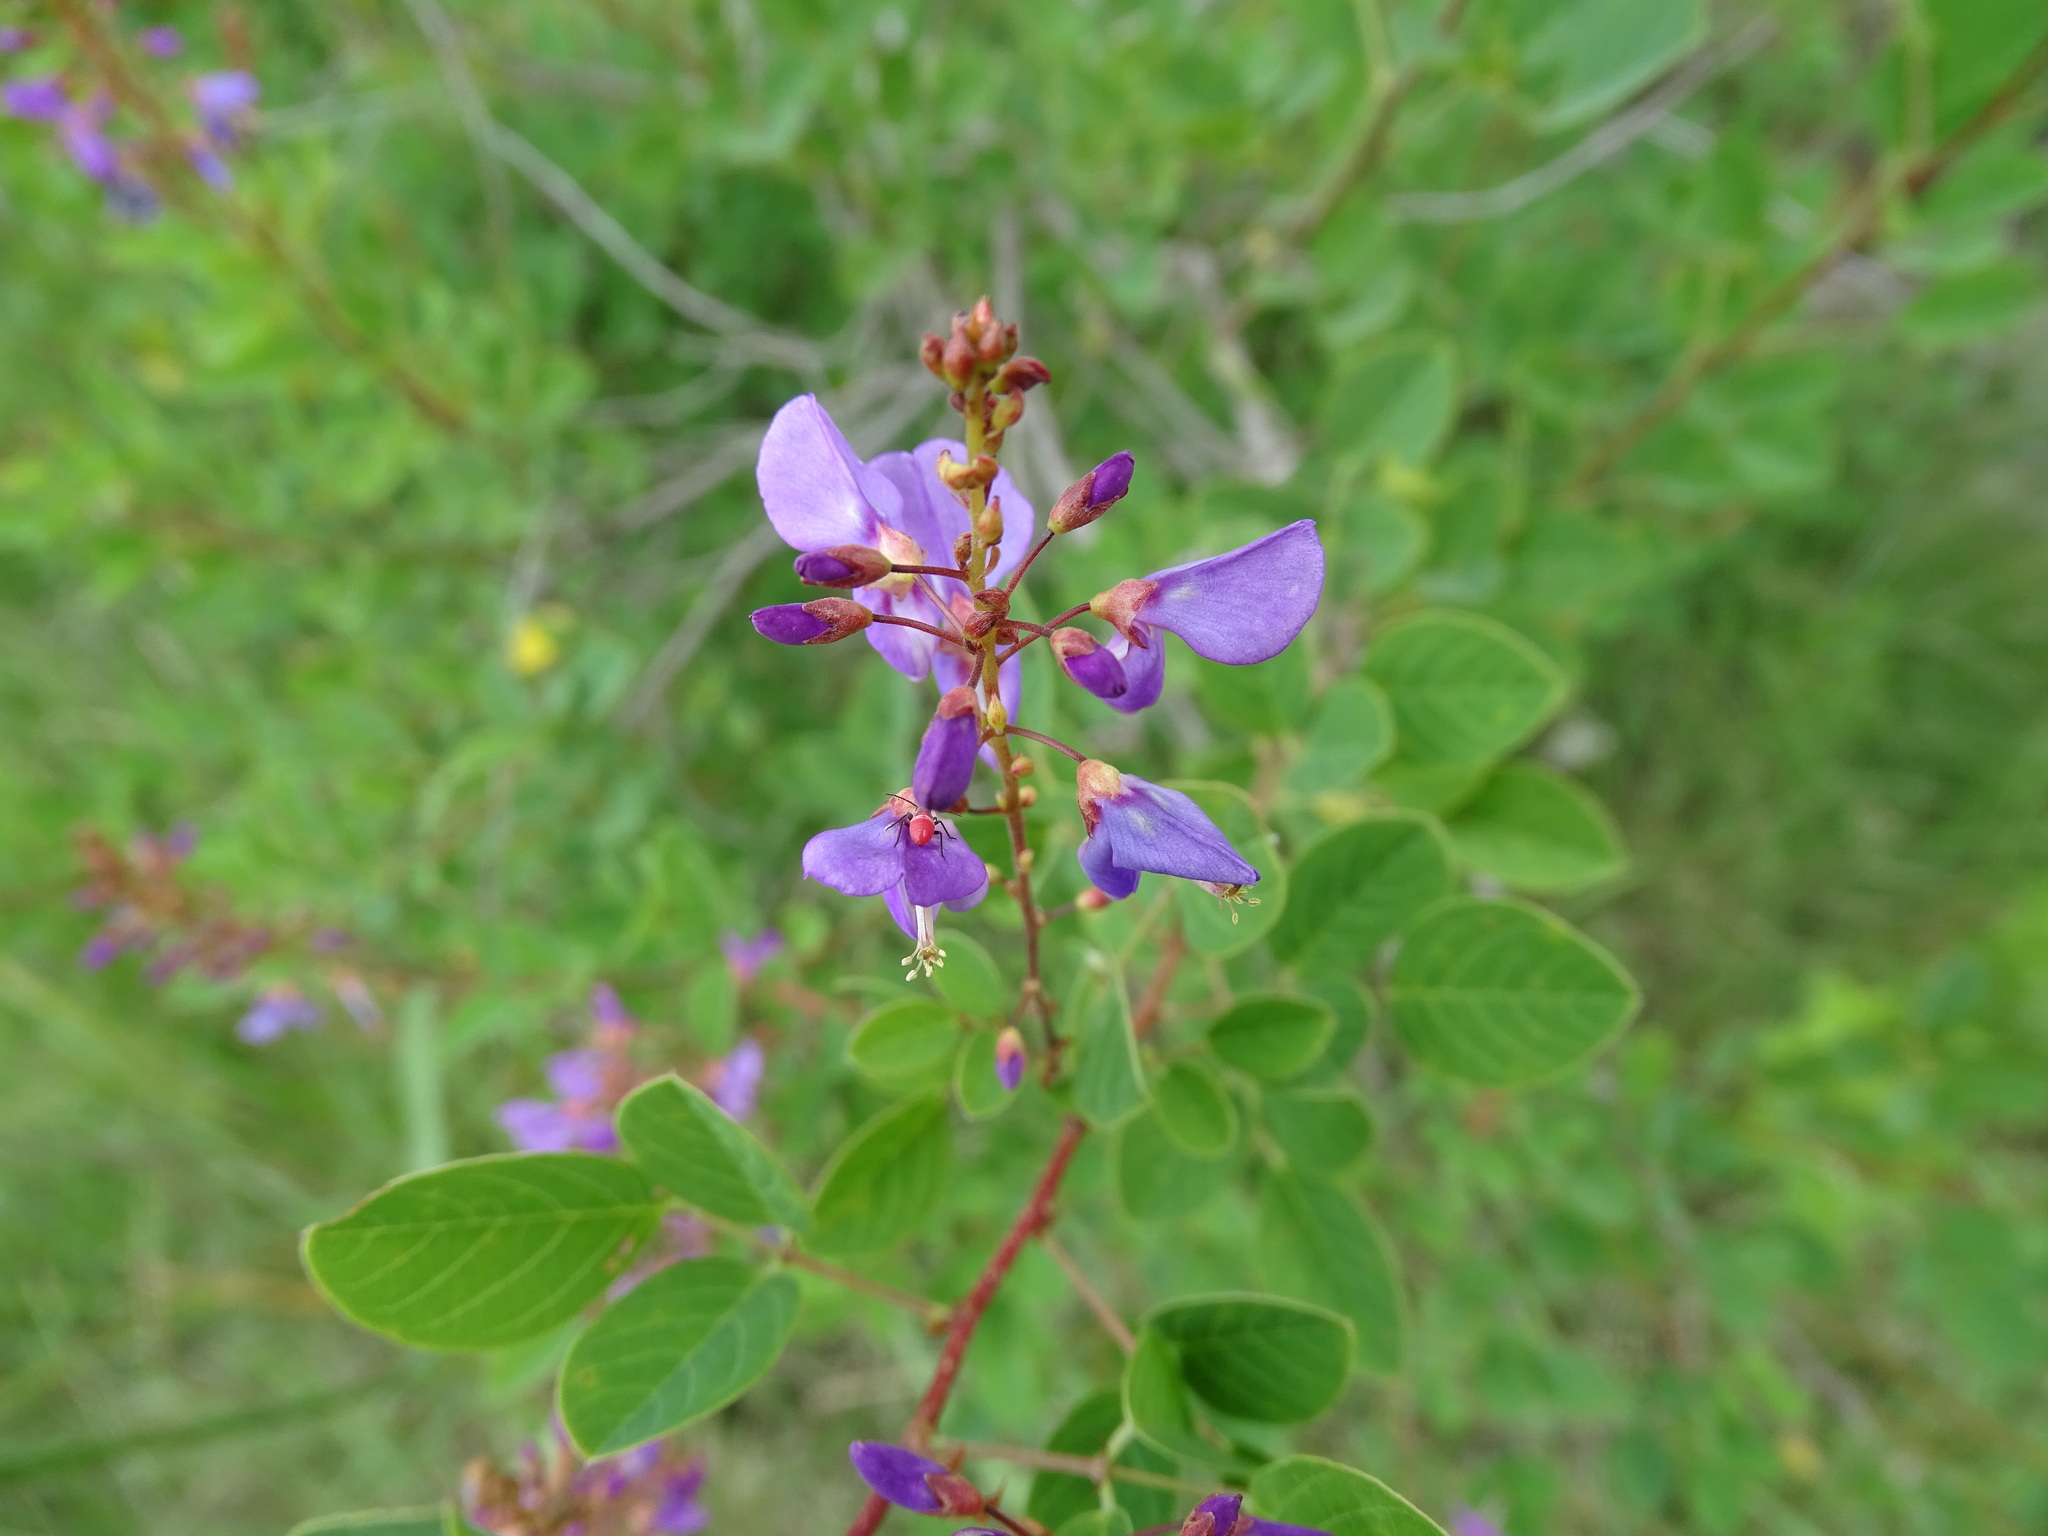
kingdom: Plantae
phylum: Tracheophyta
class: Magnoliopsida
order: Fabales
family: Fabaceae
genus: Desmodium
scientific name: Desmodium orbiculare
